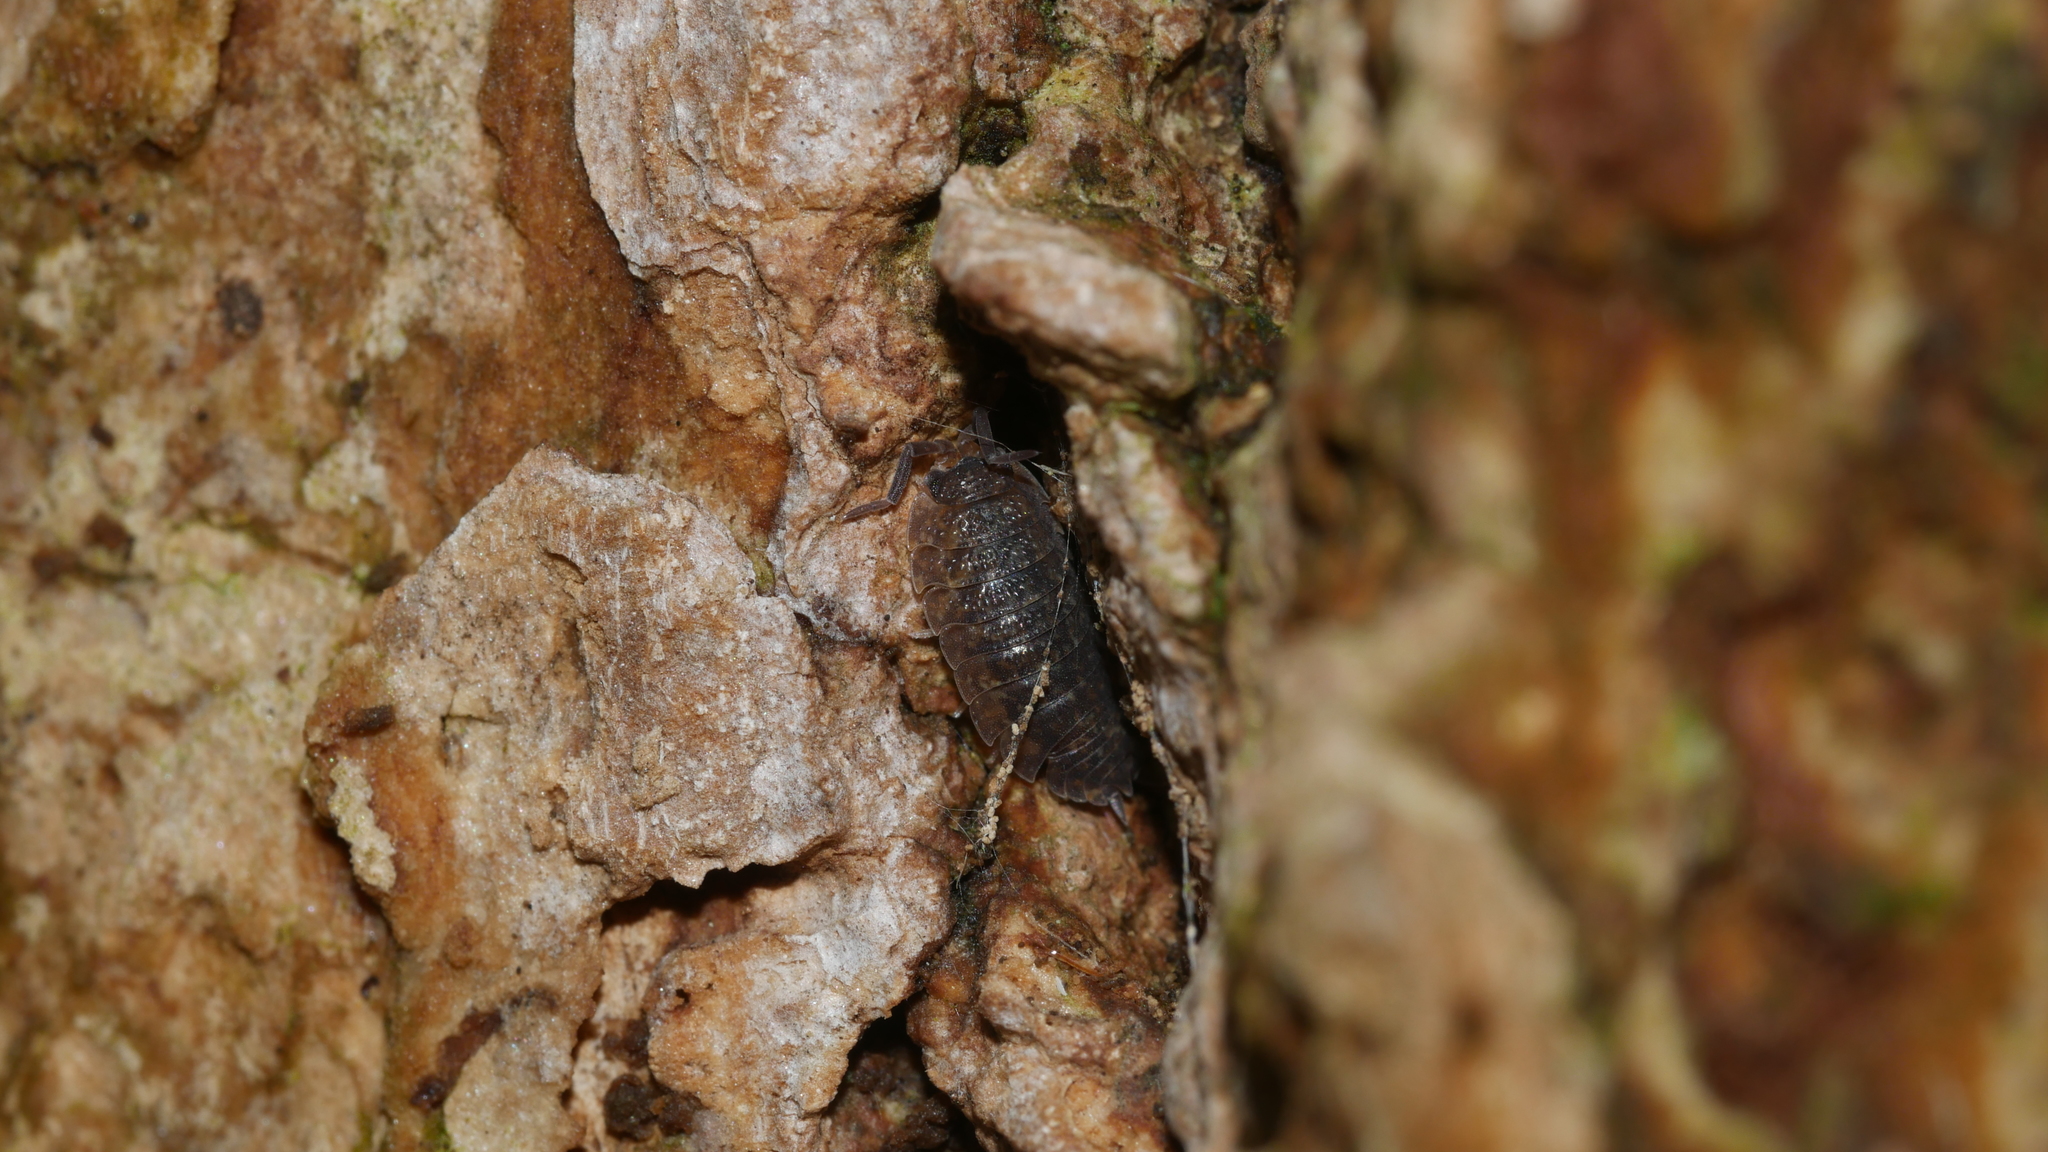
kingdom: Animalia
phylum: Arthropoda
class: Malacostraca
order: Isopoda
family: Porcellionidae
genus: Porcellio
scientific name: Porcellio scaber
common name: Common rough woodlouse
